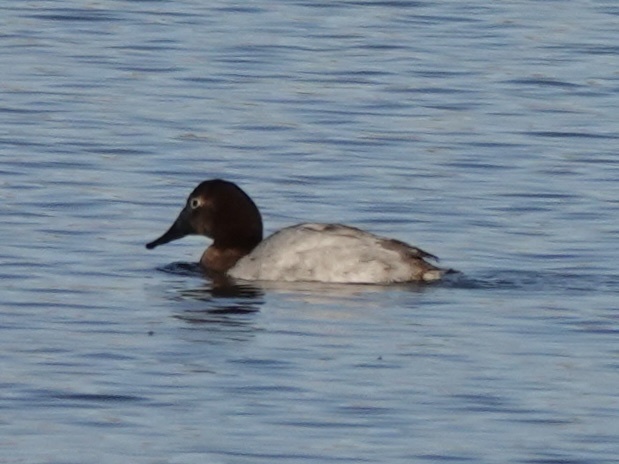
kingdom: Animalia
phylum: Chordata
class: Aves
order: Anseriformes
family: Anatidae
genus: Aythya
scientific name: Aythya valisineria
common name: Canvasback
